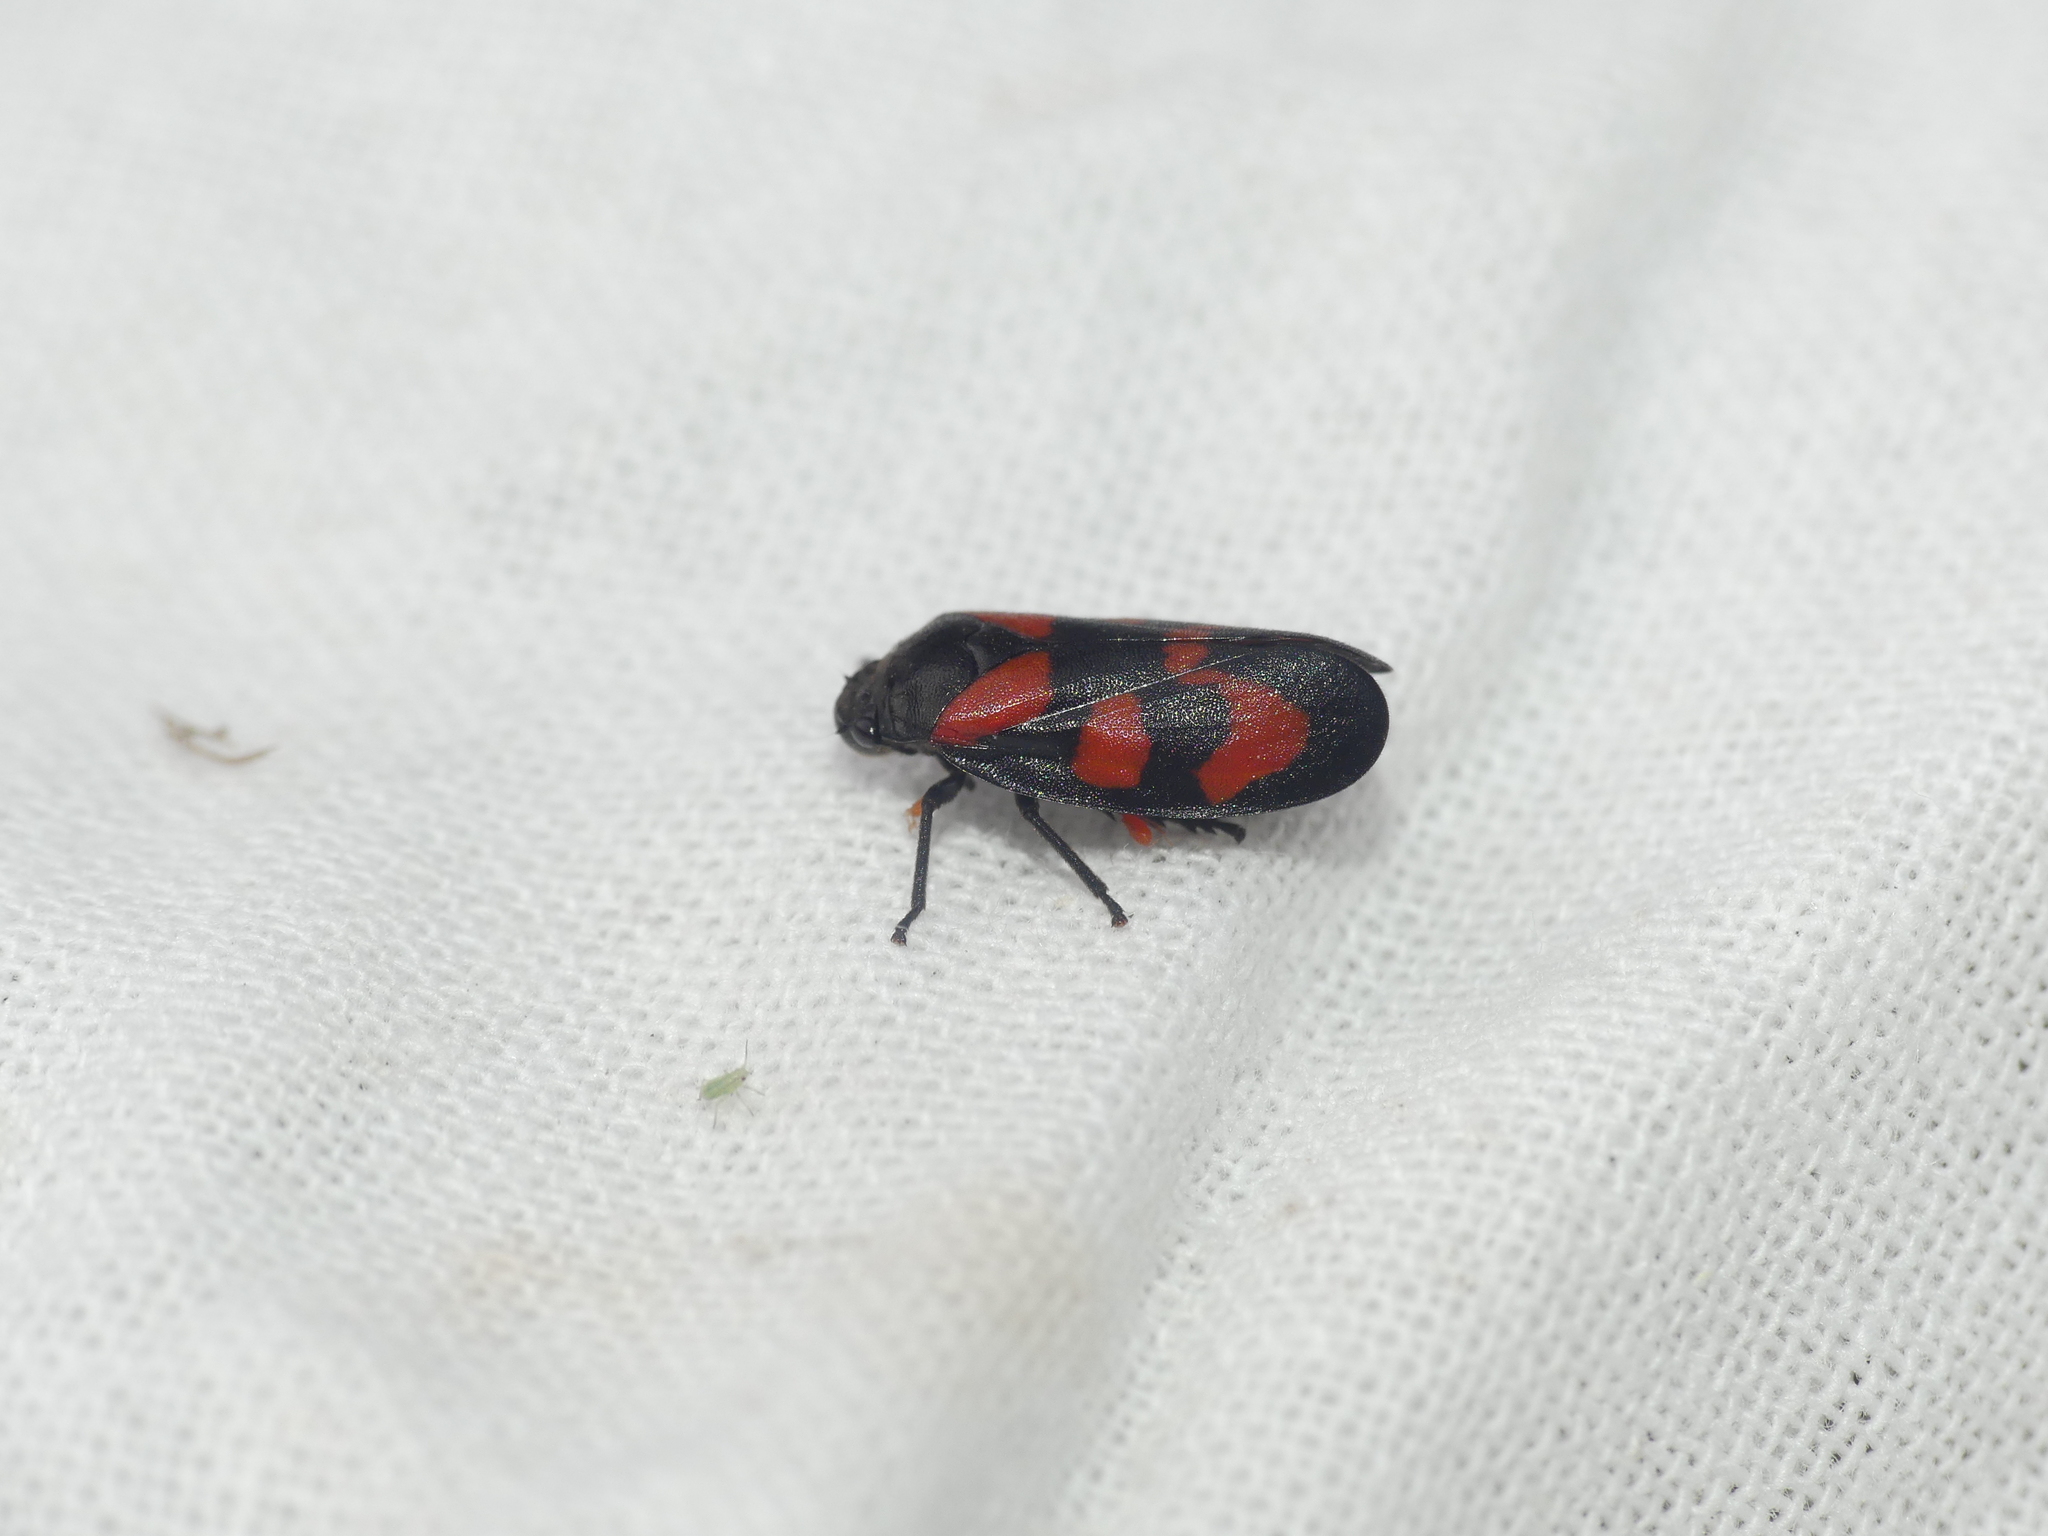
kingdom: Animalia
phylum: Arthropoda
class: Insecta
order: Hemiptera
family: Cercopidae
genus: Cercopis
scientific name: Cercopis vulnerata
